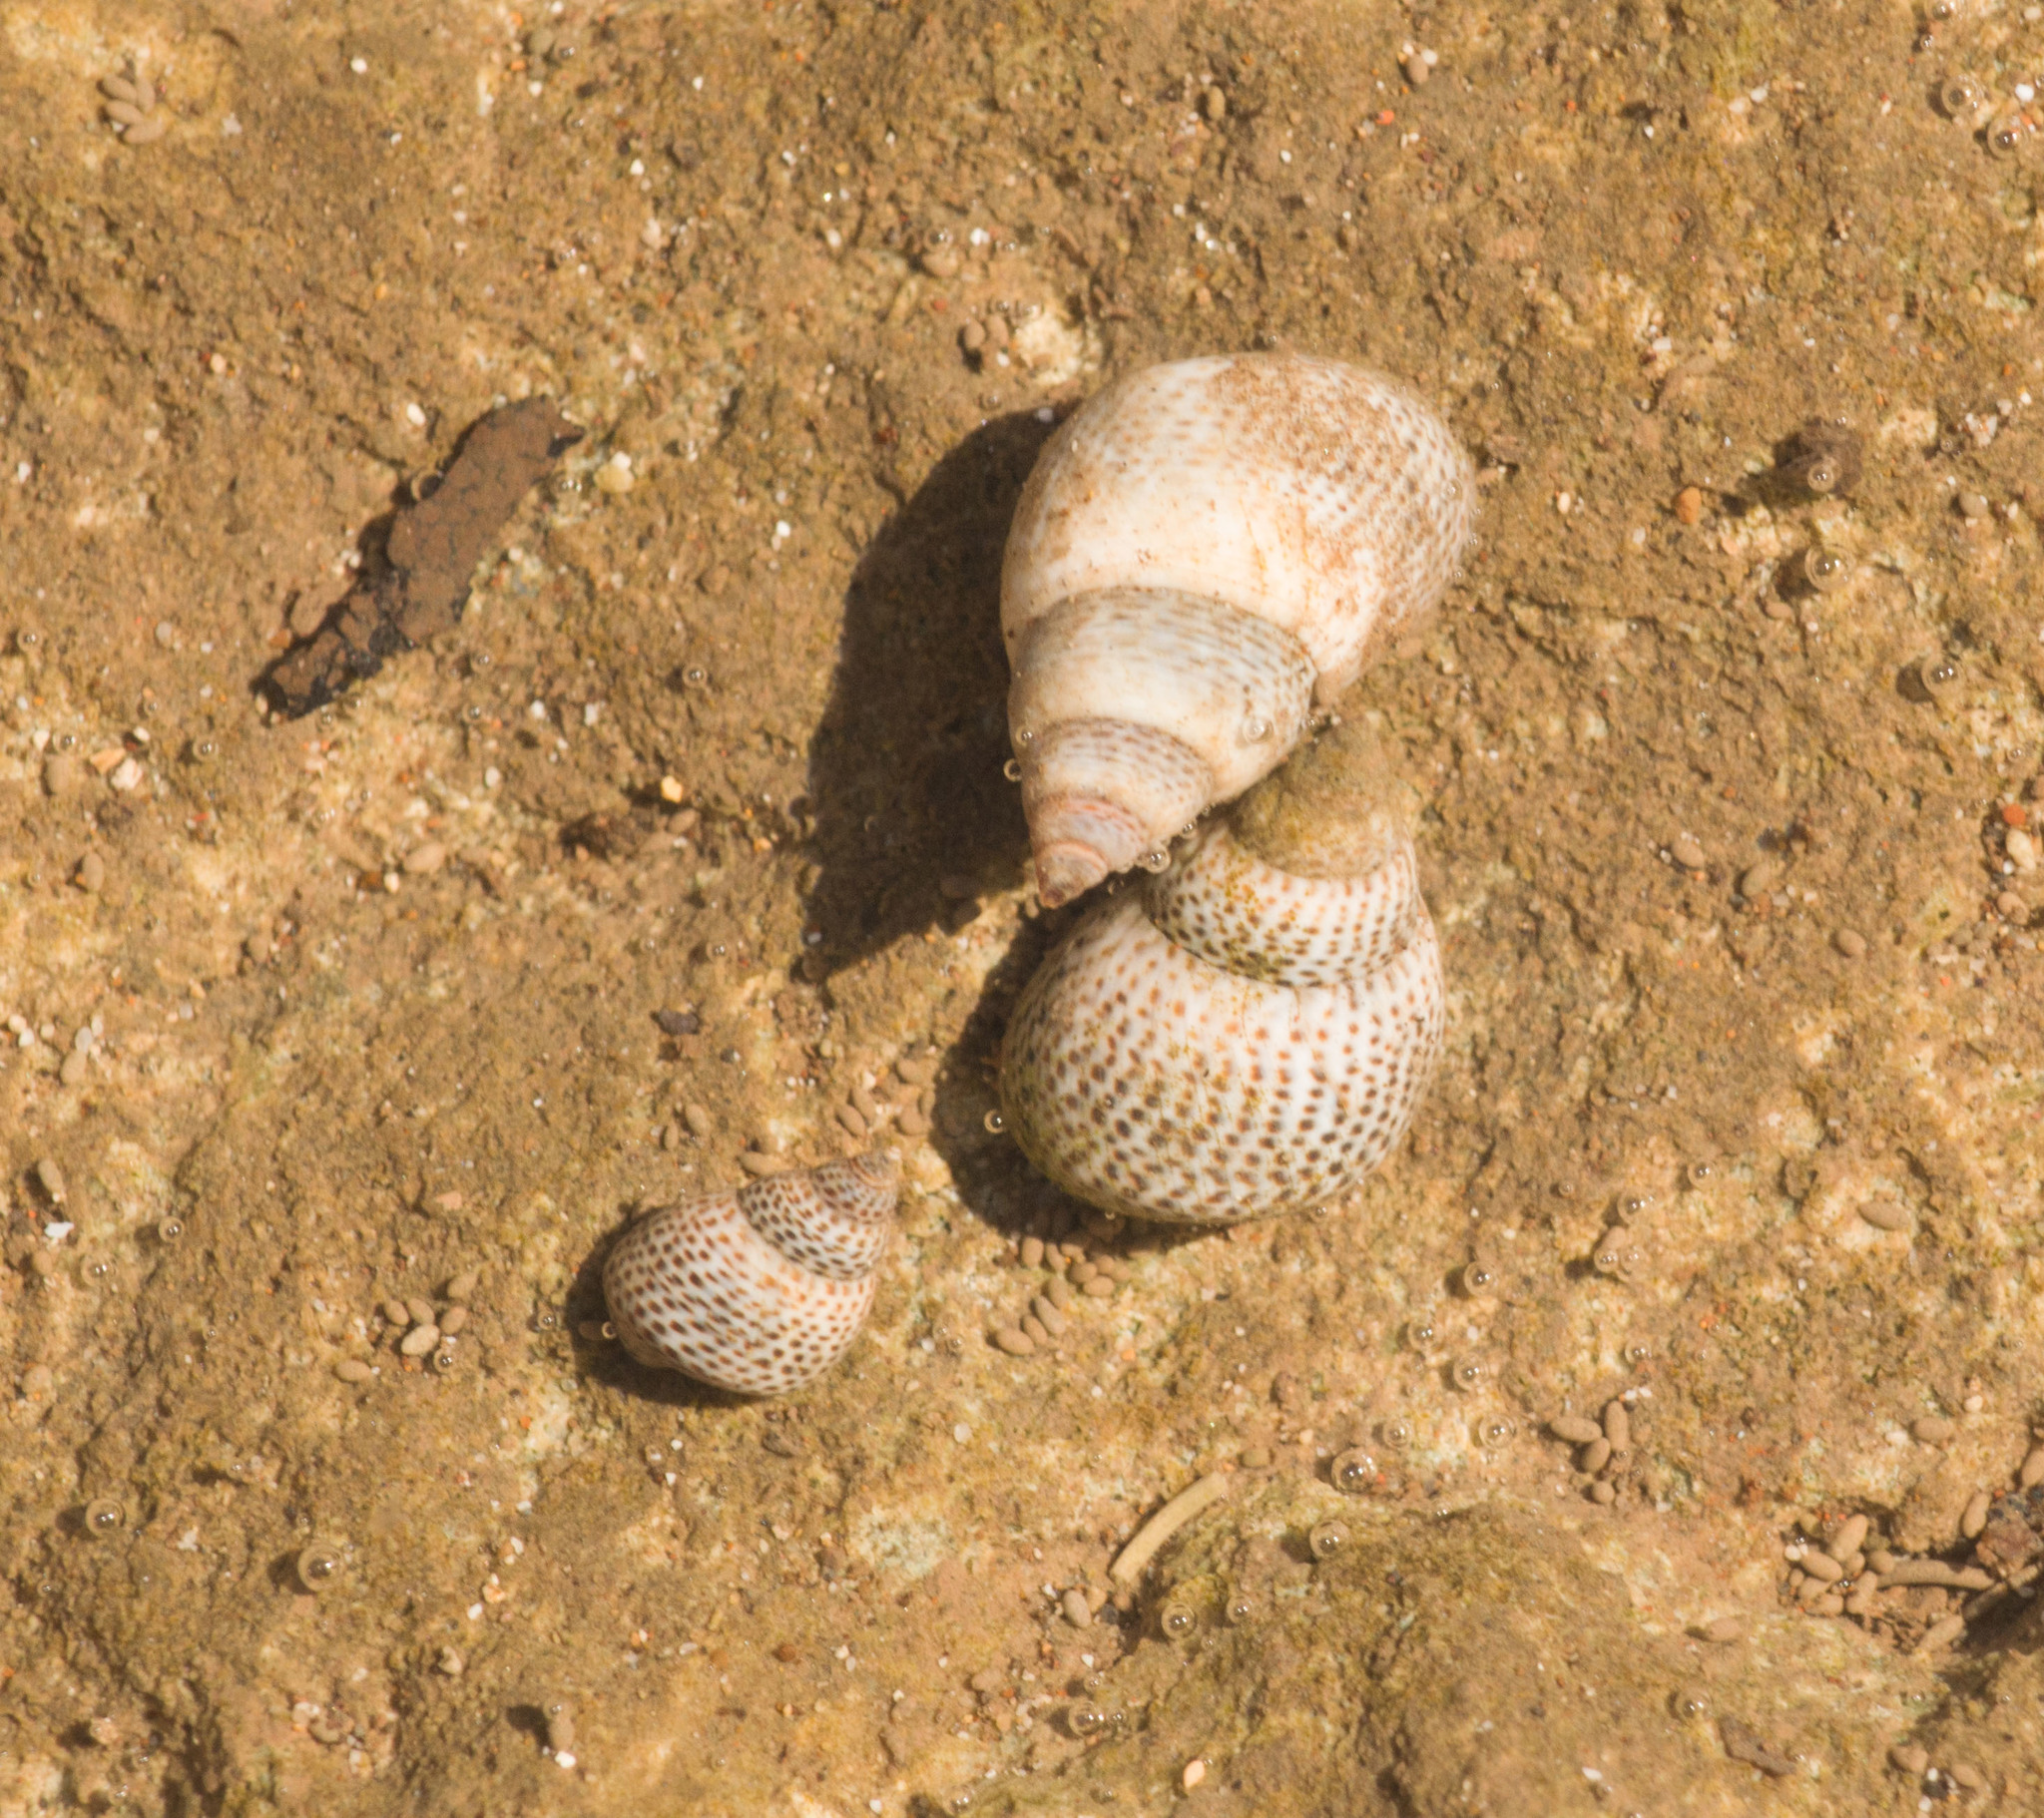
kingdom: Animalia
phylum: Mollusca
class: Gastropoda
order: Littorinimorpha
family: Littorinidae
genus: Littoraria
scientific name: Littoraria pintado
